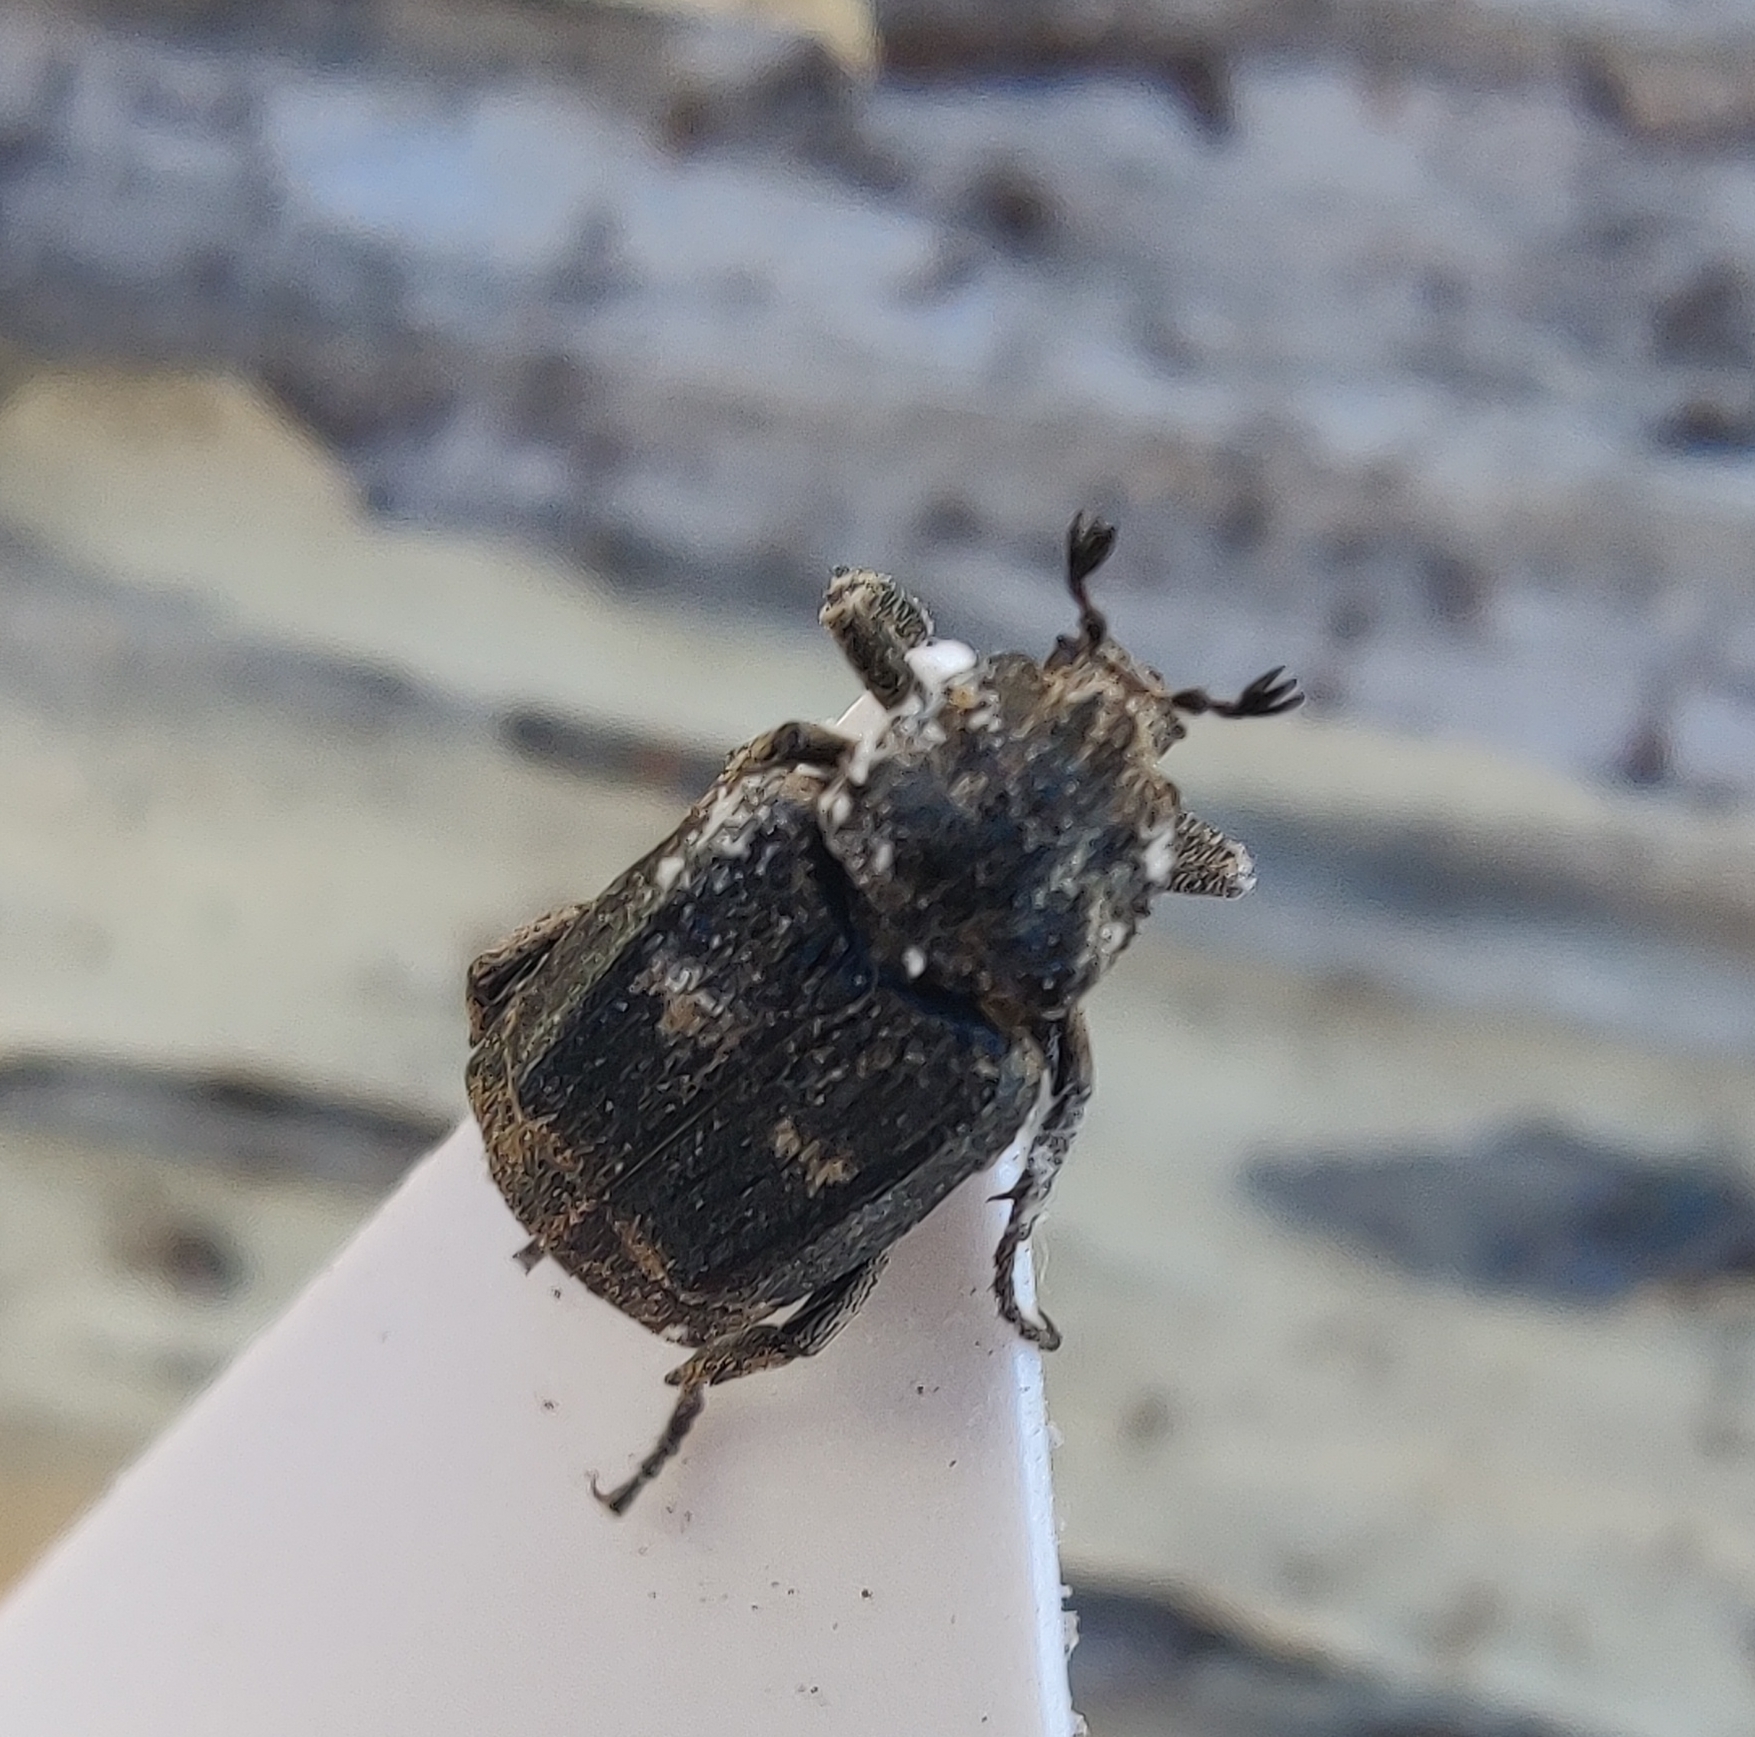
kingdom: Animalia
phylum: Arthropoda
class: Insecta
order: Coleoptera
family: Scarabaeidae
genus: Valgus
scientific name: Valgus hemipterus
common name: Bug flower chafer
